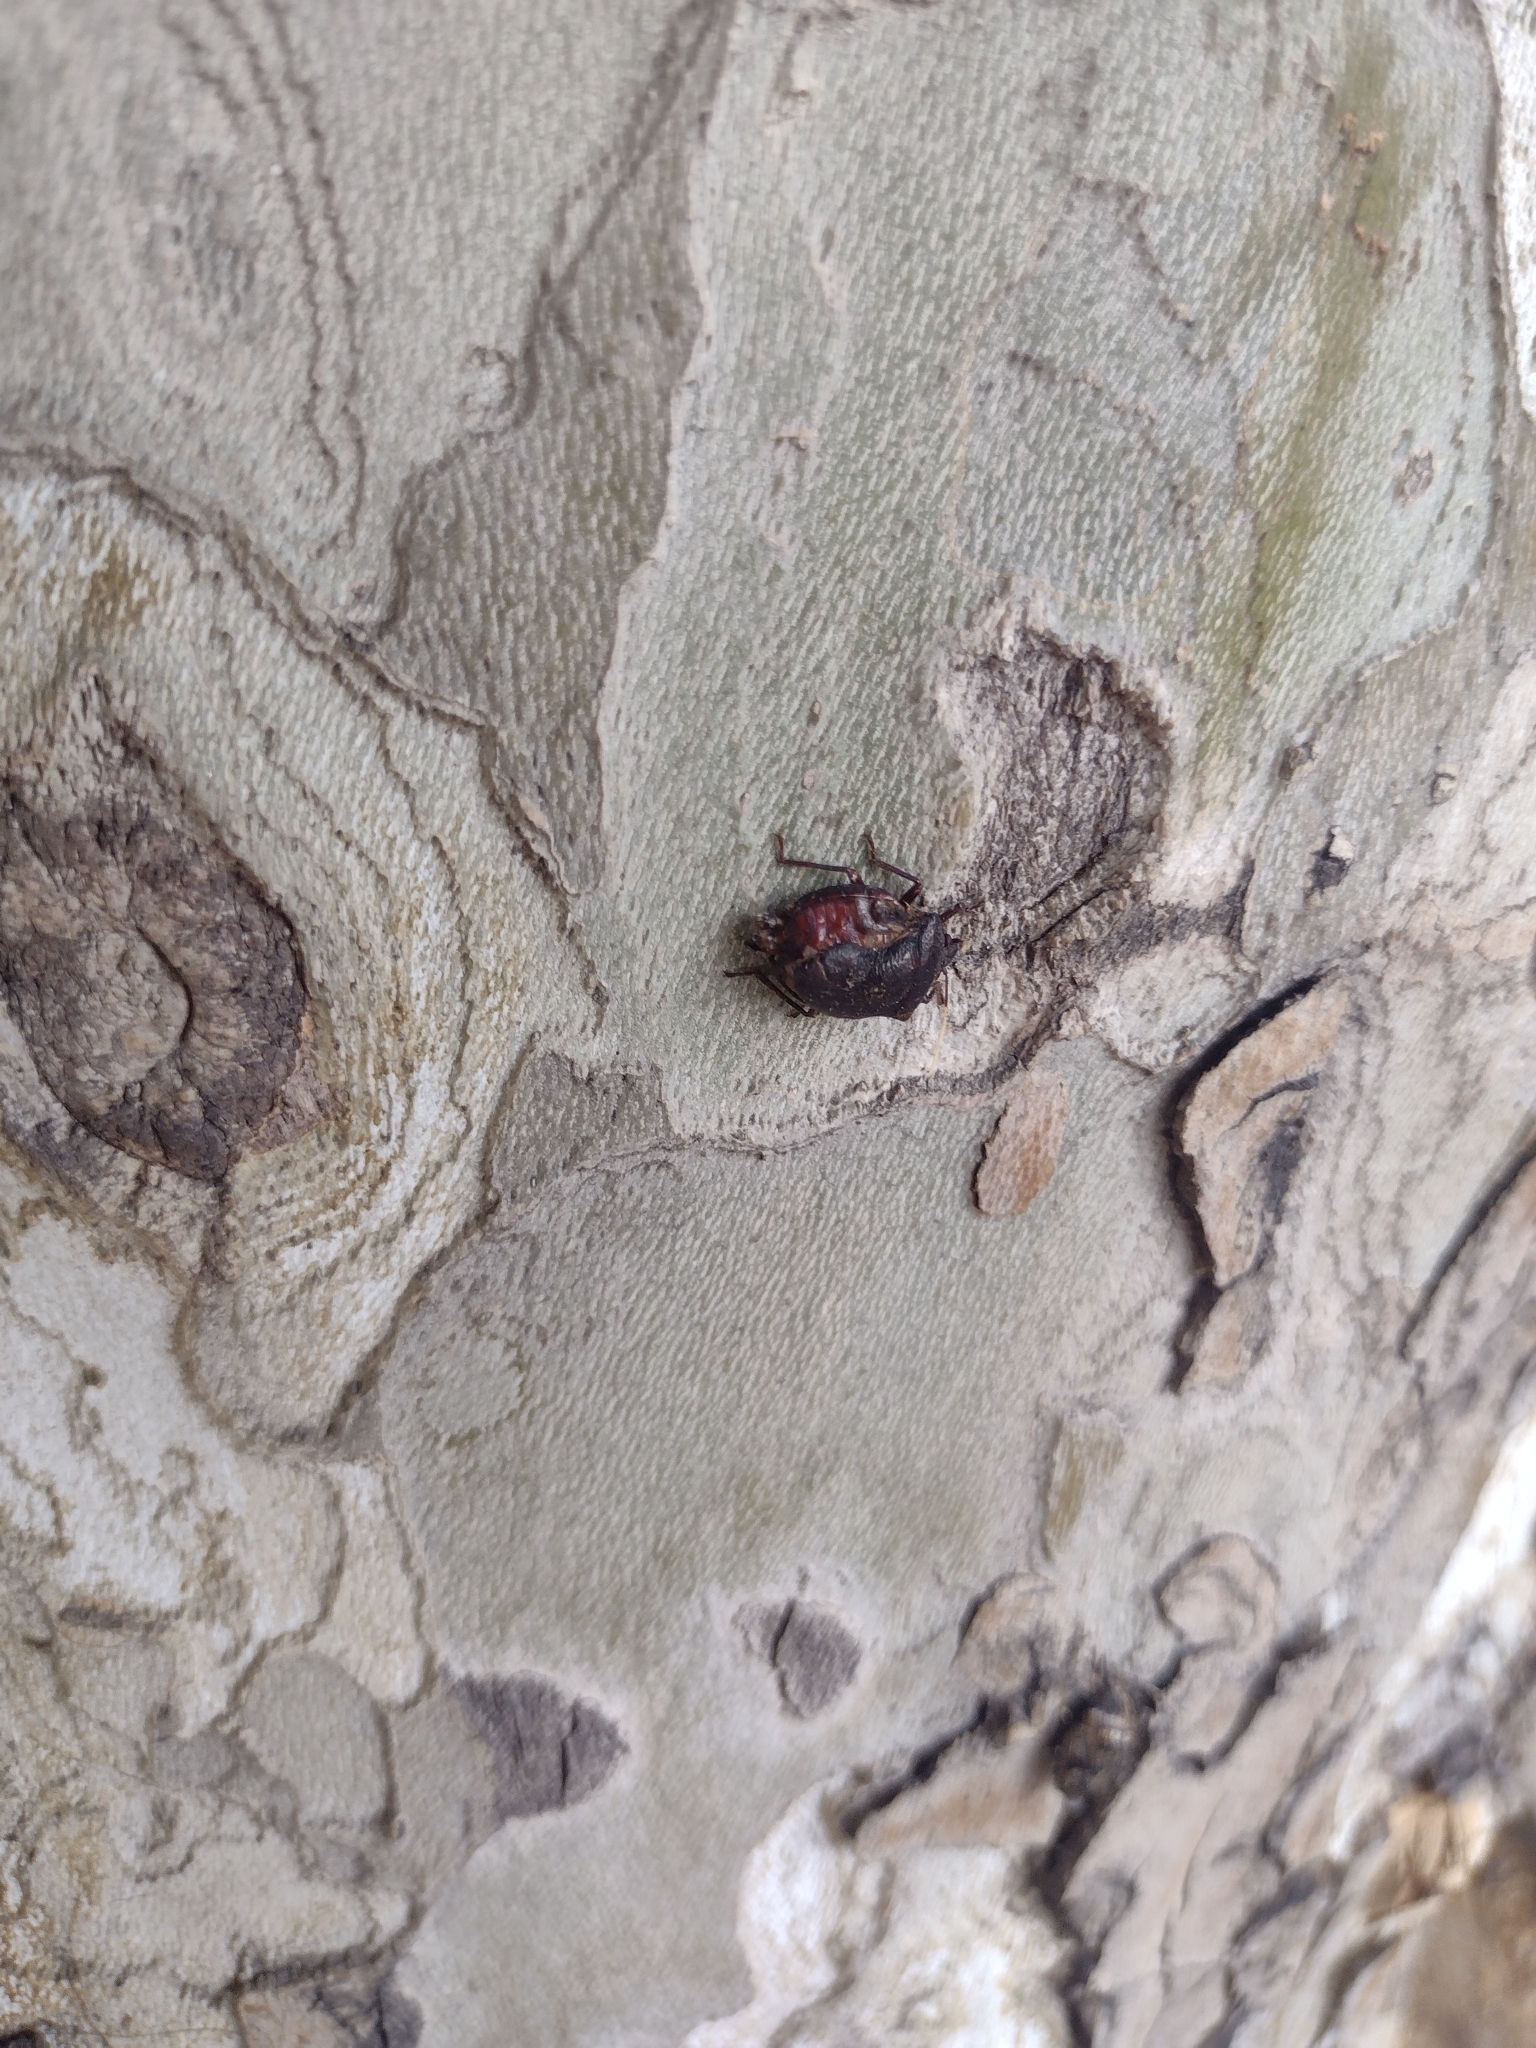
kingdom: Animalia
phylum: Arthropoda
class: Insecta
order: Hemiptera
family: Pentatomidae
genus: Antiteuchus
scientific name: Antiteuchus mixtus
